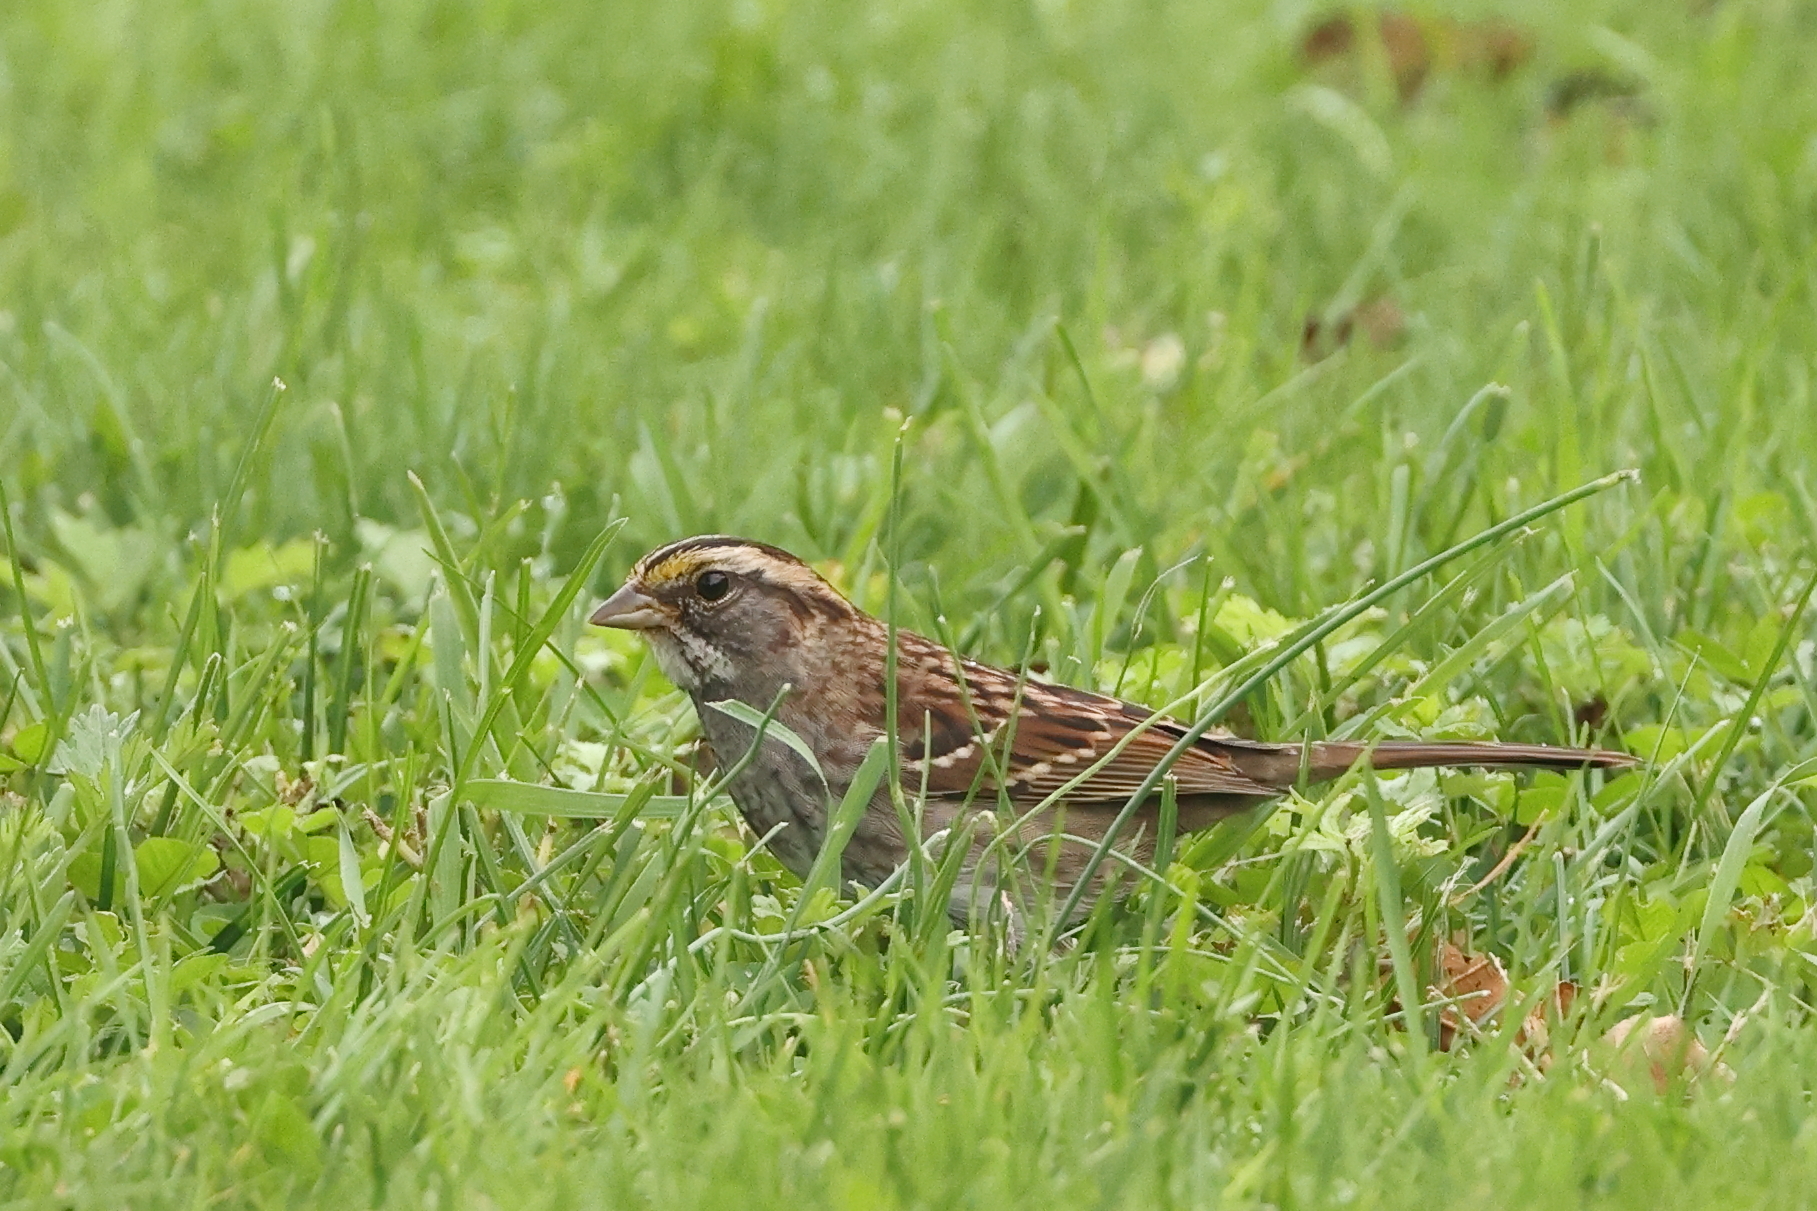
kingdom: Animalia
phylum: Chordata
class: Aves
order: Passeriformes
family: Passerellidae
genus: Zonotrichia
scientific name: Zonotrichia albicollis
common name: White-throated sparrow
